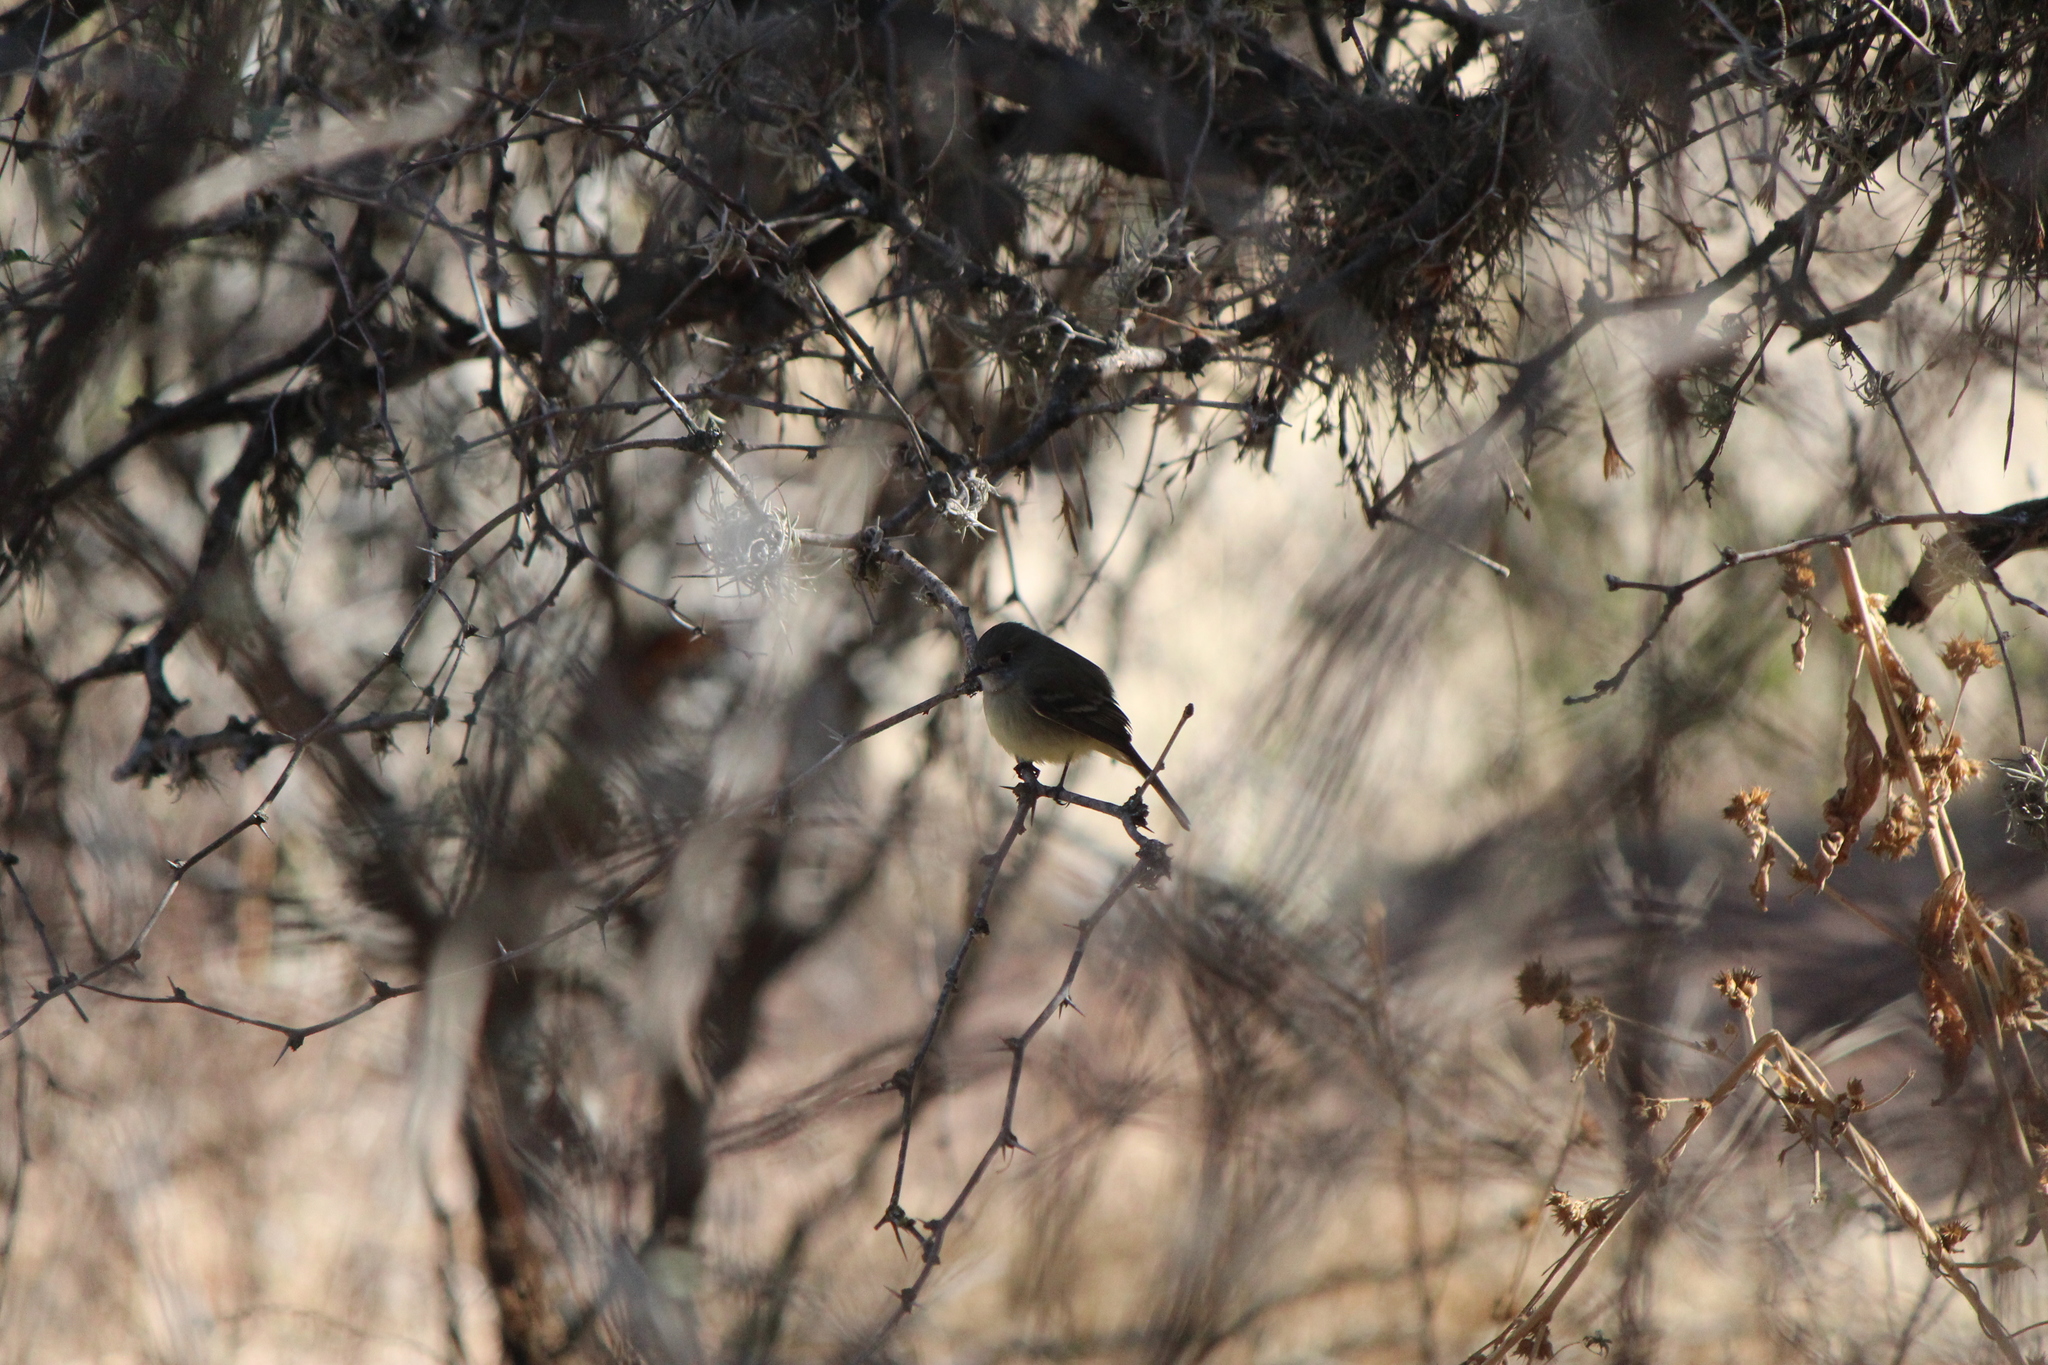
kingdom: Animalia
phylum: Chordata
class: Aves
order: Passeriformes
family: Tyrannidae
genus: Empidonax
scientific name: Empidonax hammondii
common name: Hammond's flycatcher
